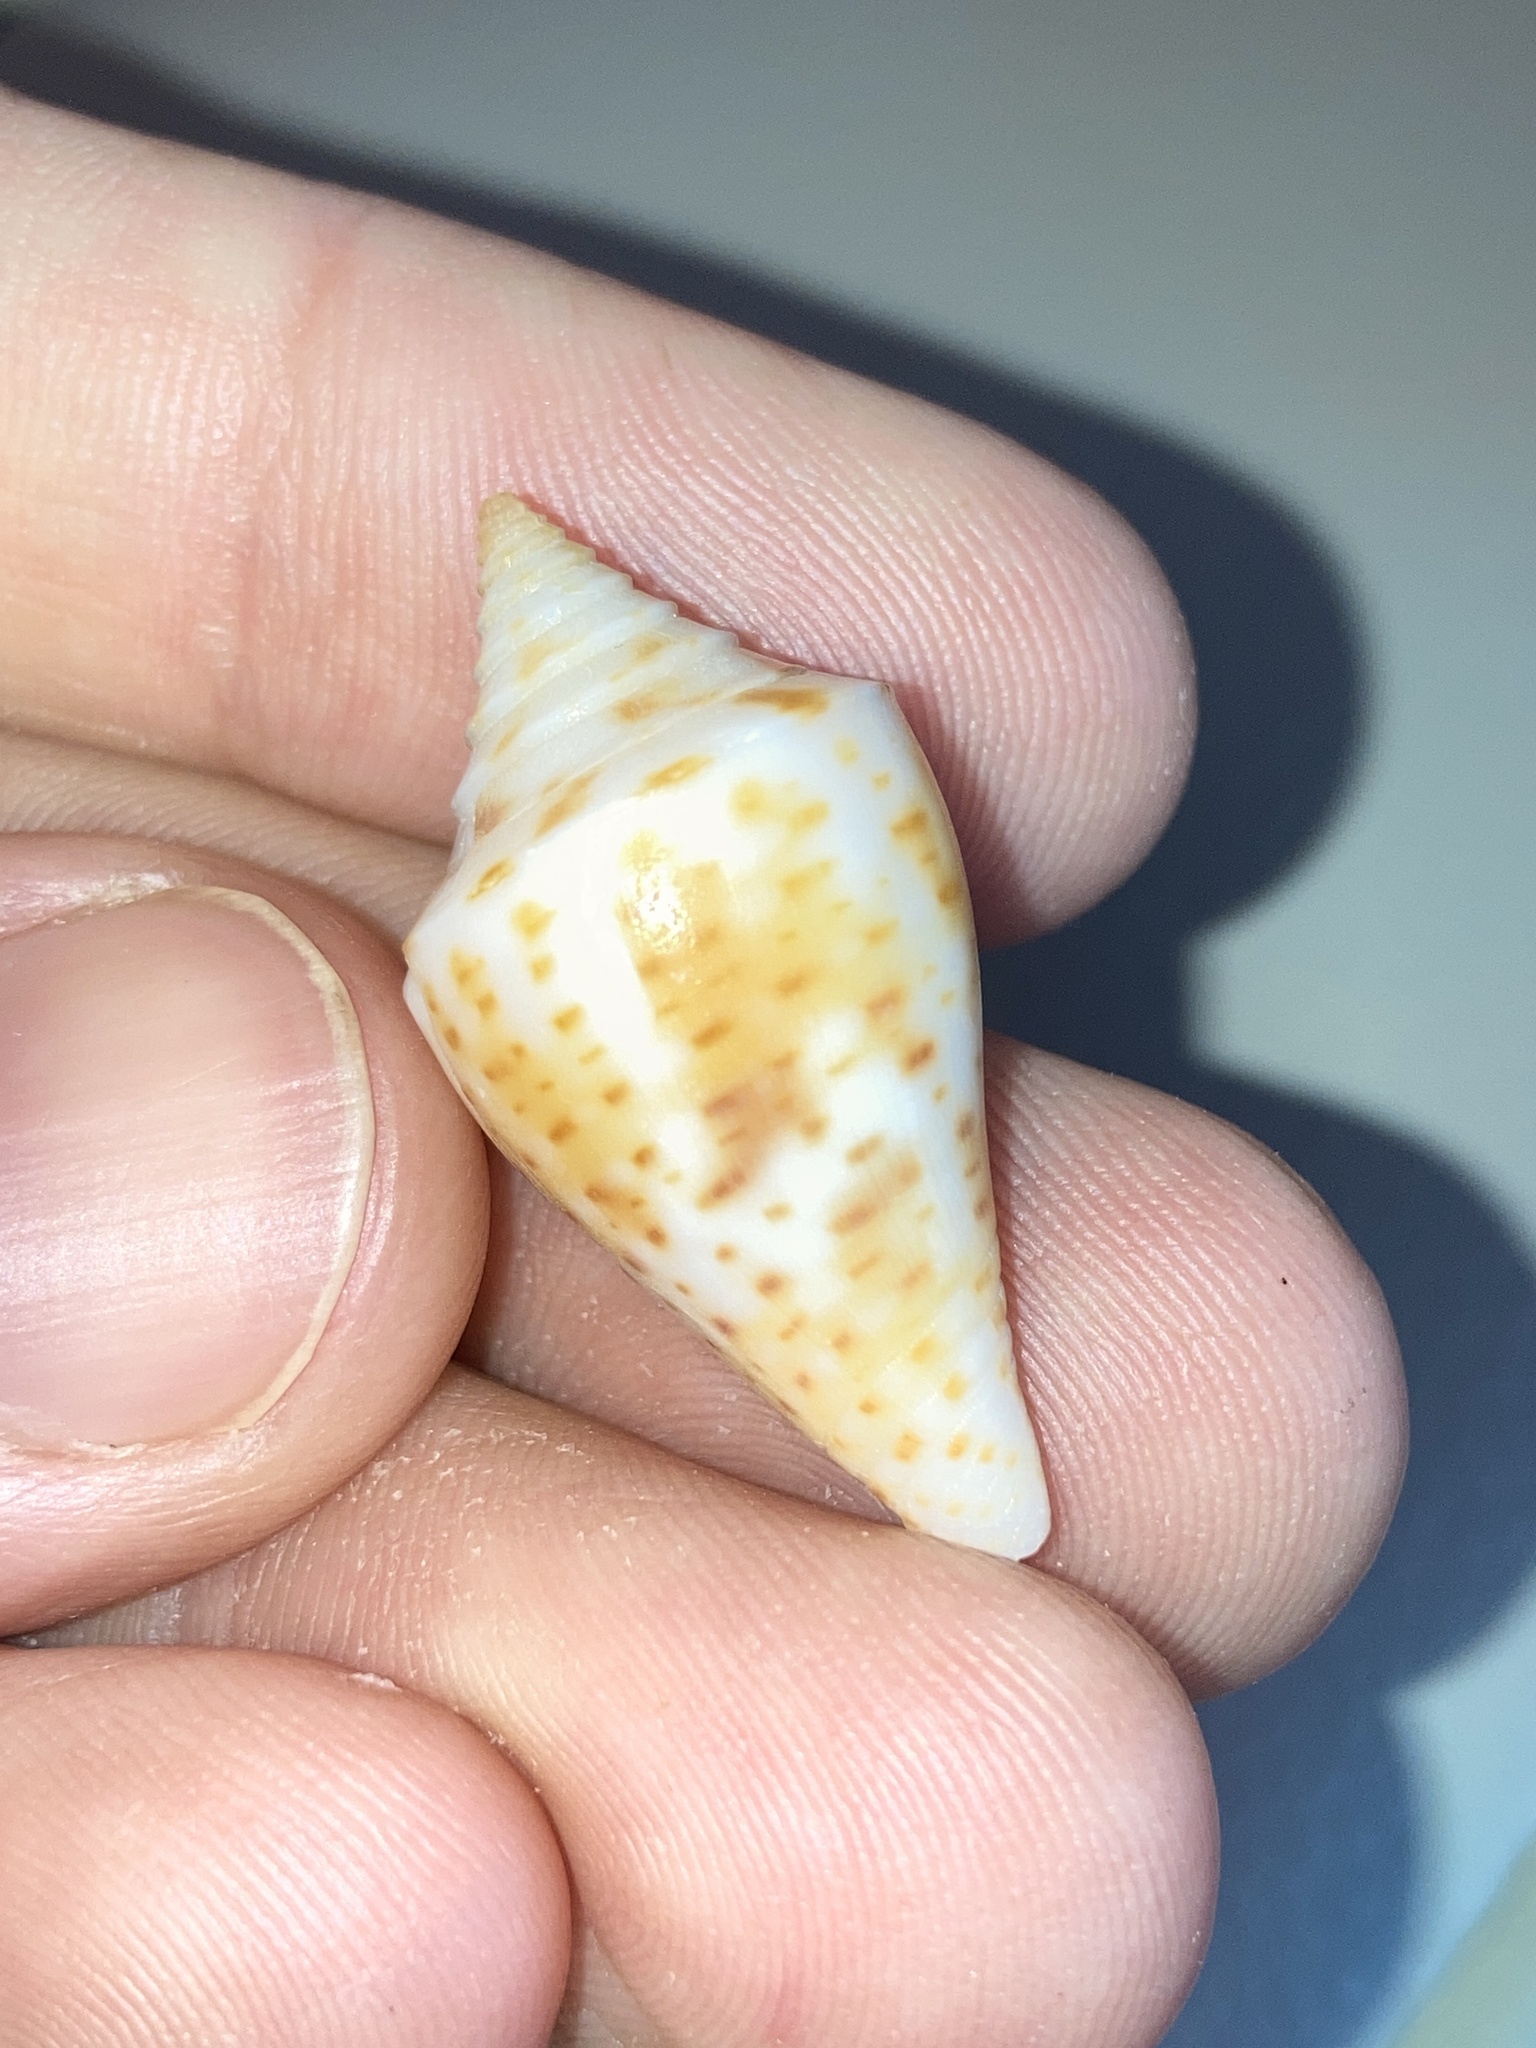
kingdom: Animalia
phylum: Mollusca
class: Gastropoda
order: Neogastropoda
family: Conidae
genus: Conus
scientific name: Conus scalaris
